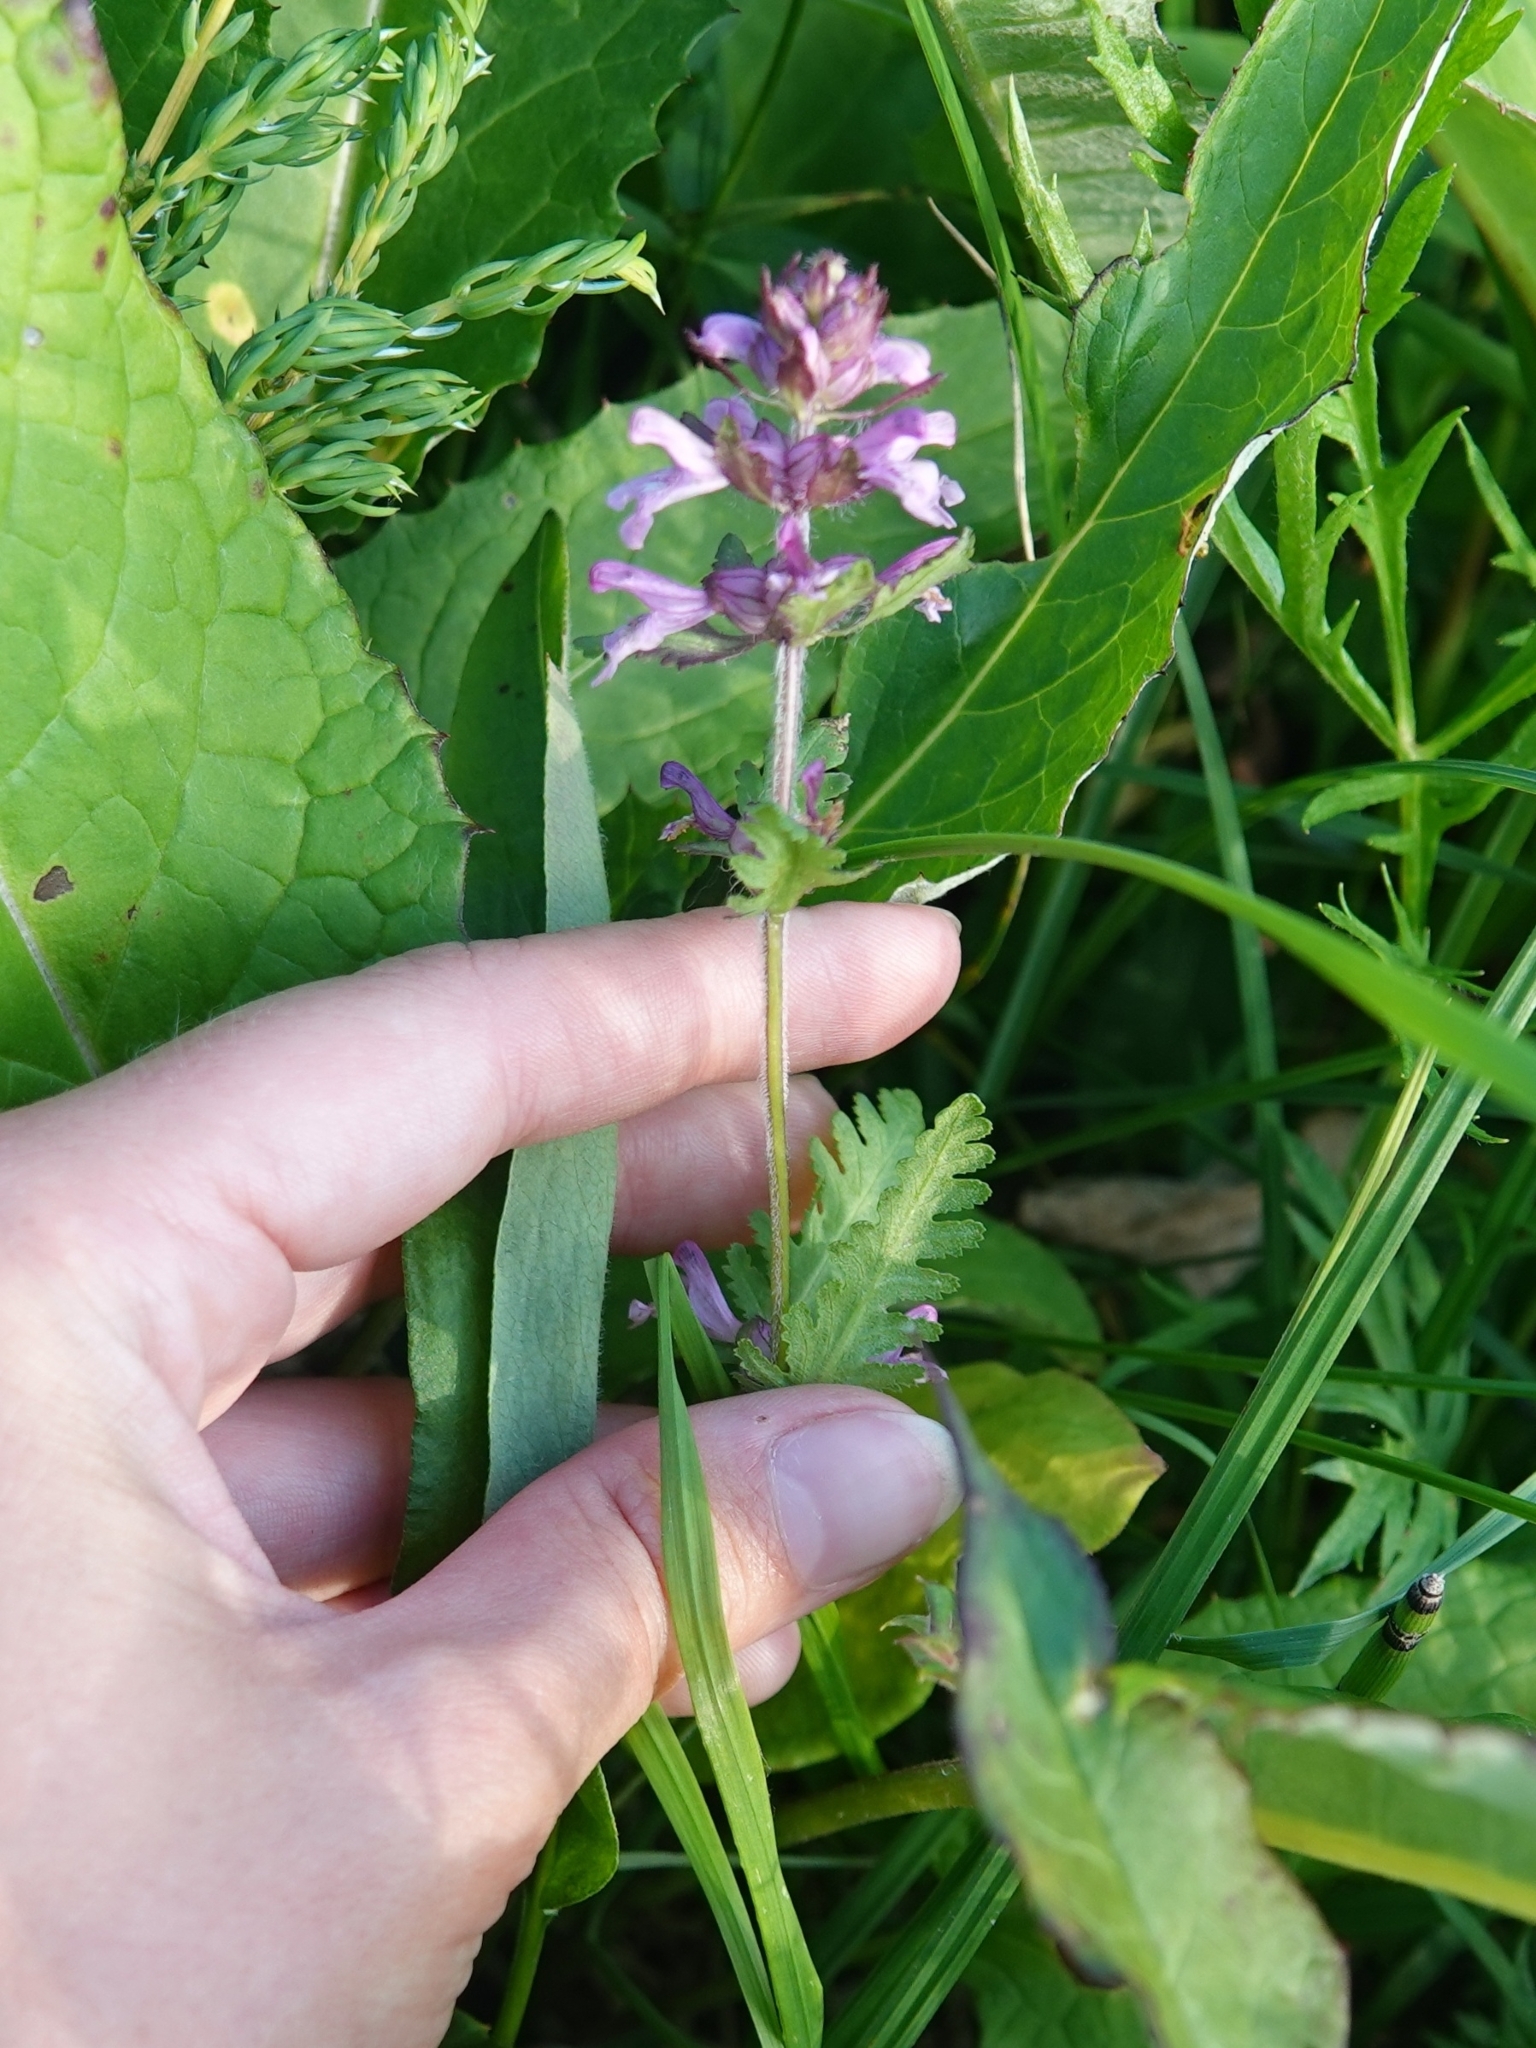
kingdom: Plantae
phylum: Tracheophyta
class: Magnoliopsida
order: Lamiales
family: Orobanchaceae
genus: Pedicularis
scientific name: Pedicularis verticillata
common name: Whorled lousewort
